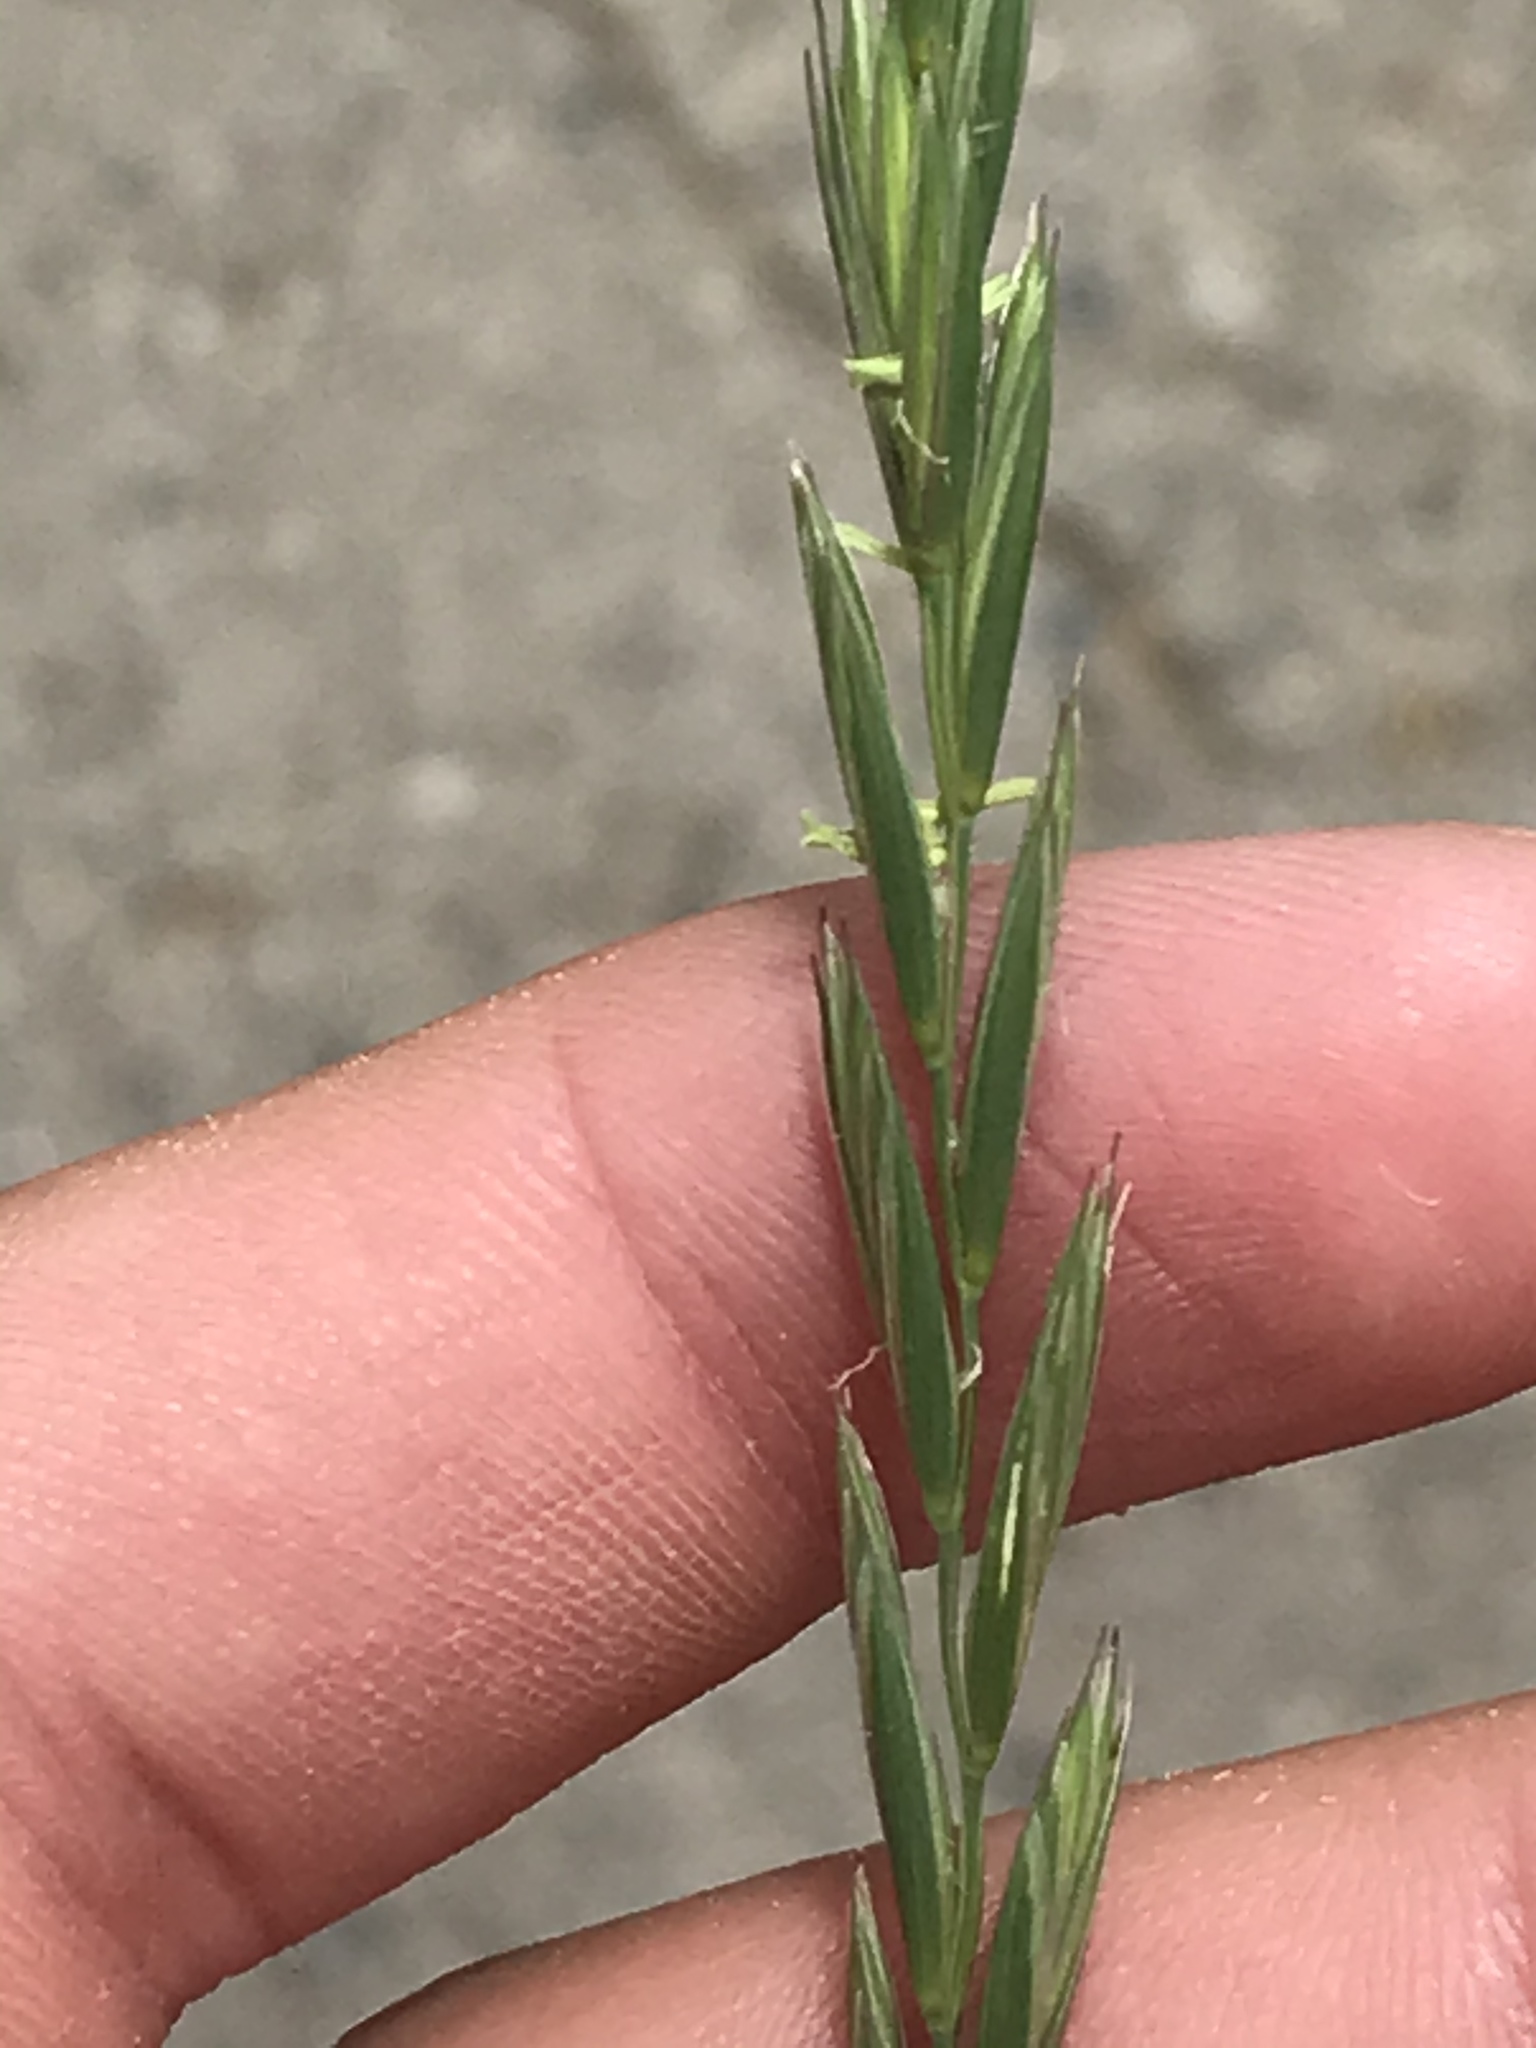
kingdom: Plantae
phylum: Tracheophyta
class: Liliopsida
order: Poales
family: Poaceae
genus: Elymus
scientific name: Elymus repens
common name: Quackgrass
